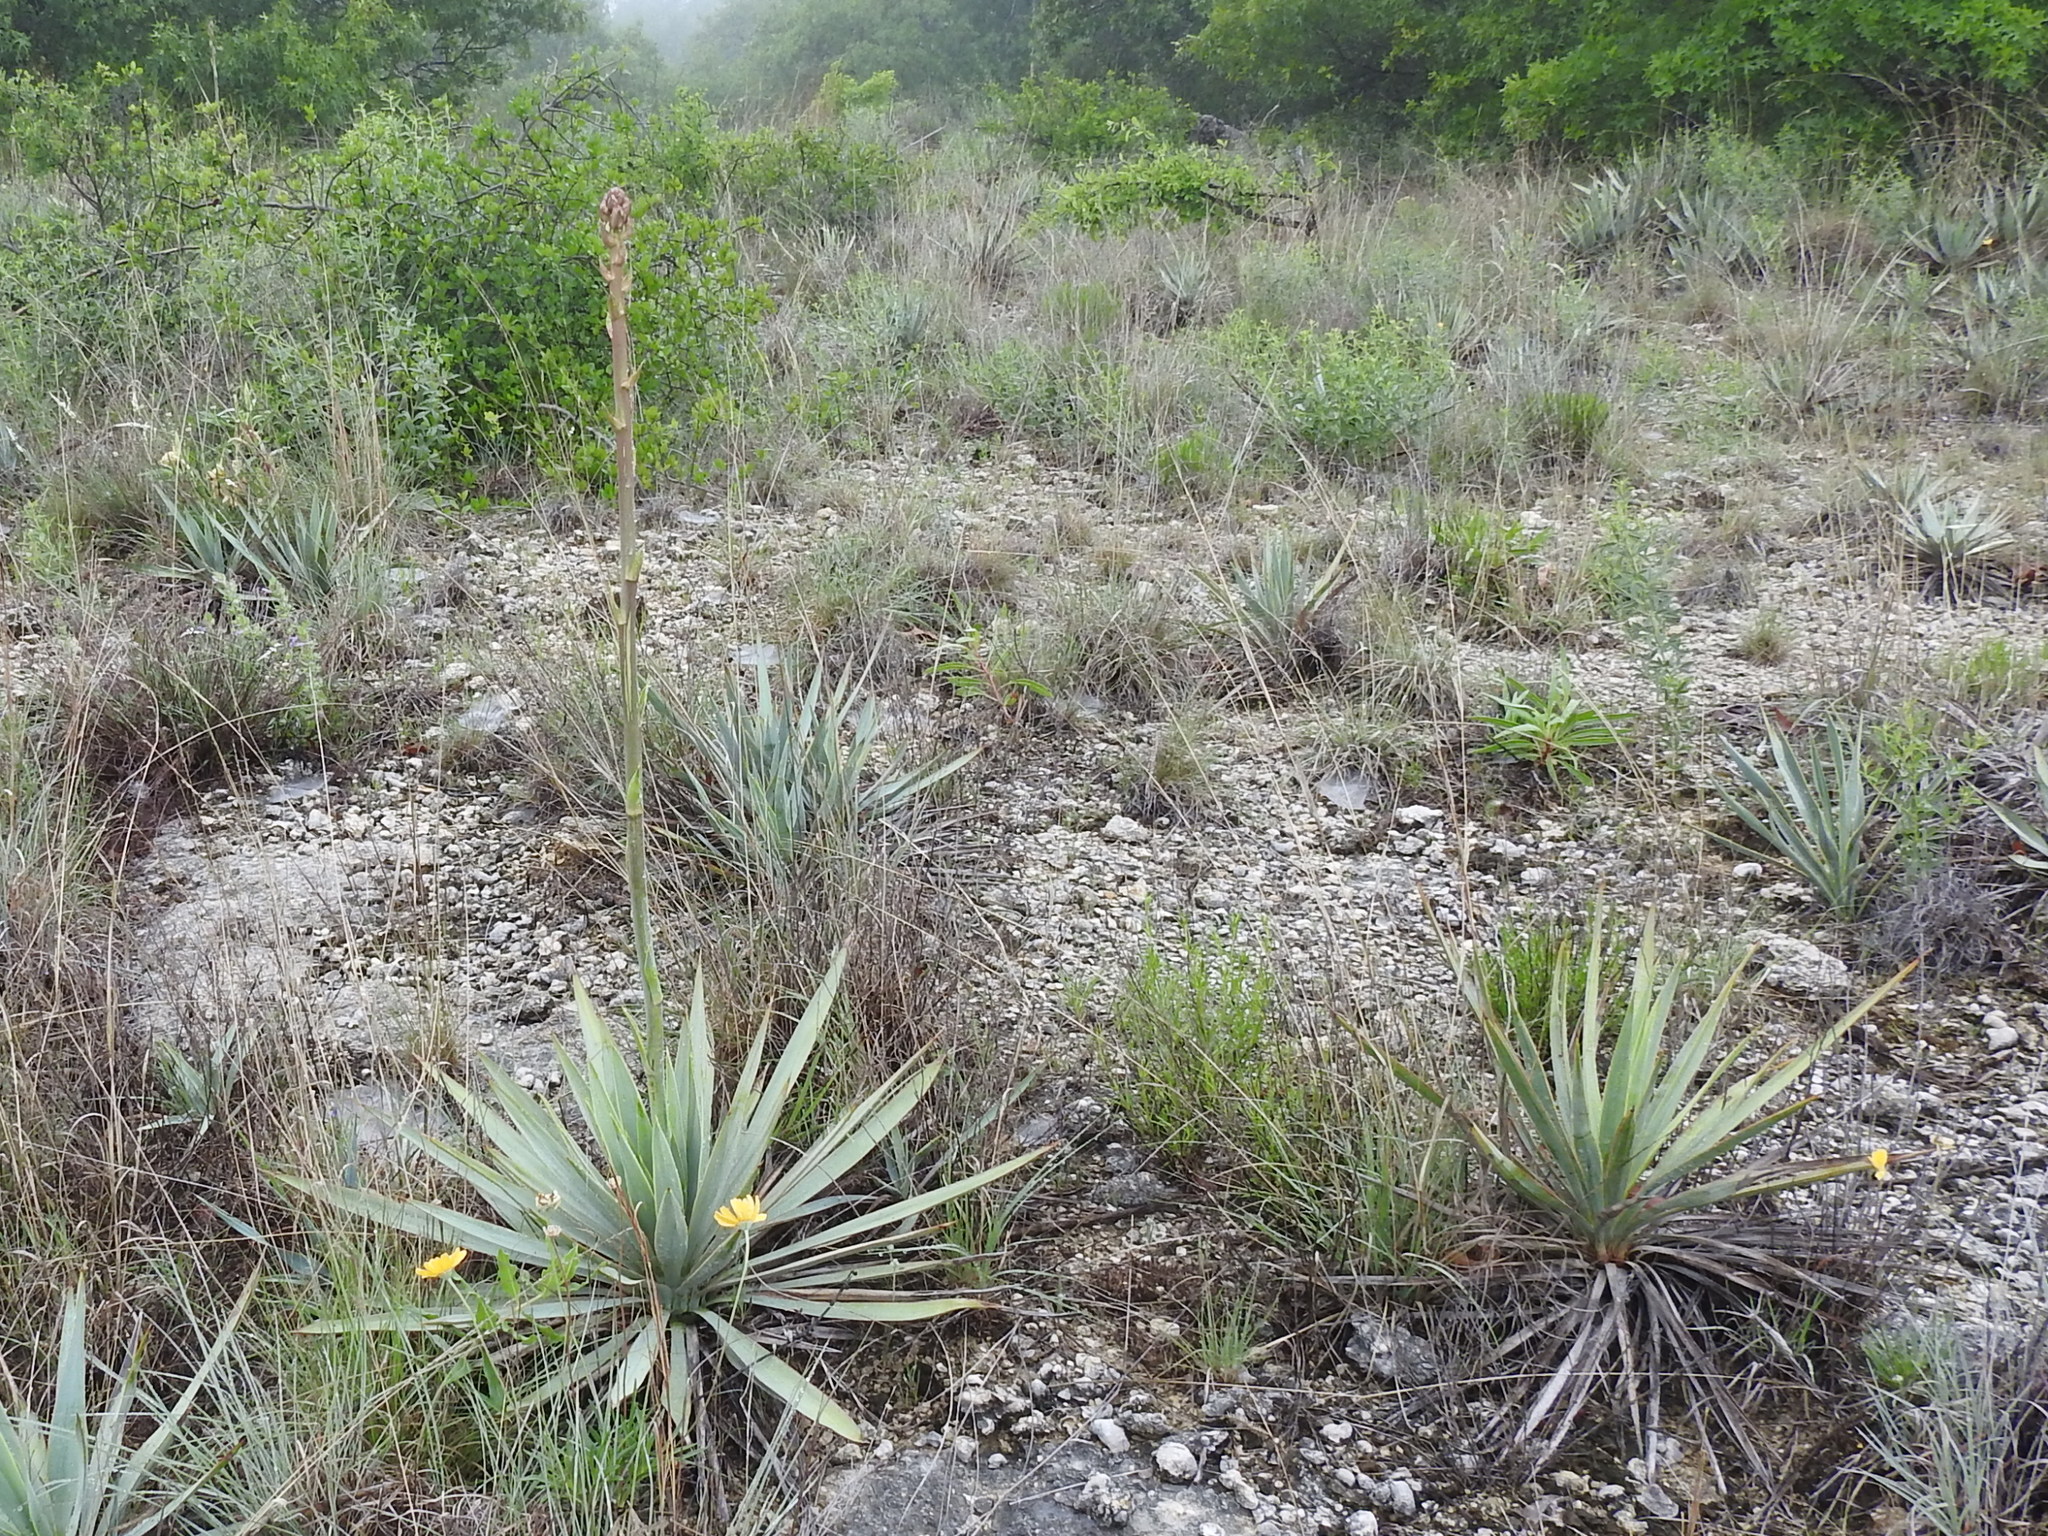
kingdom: Plantae
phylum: Tracheophyta
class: Liliopsida
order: Asparagales
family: Asparagaceae
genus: Yucca
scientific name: Yucca pallida
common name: Pale leaf yucca
